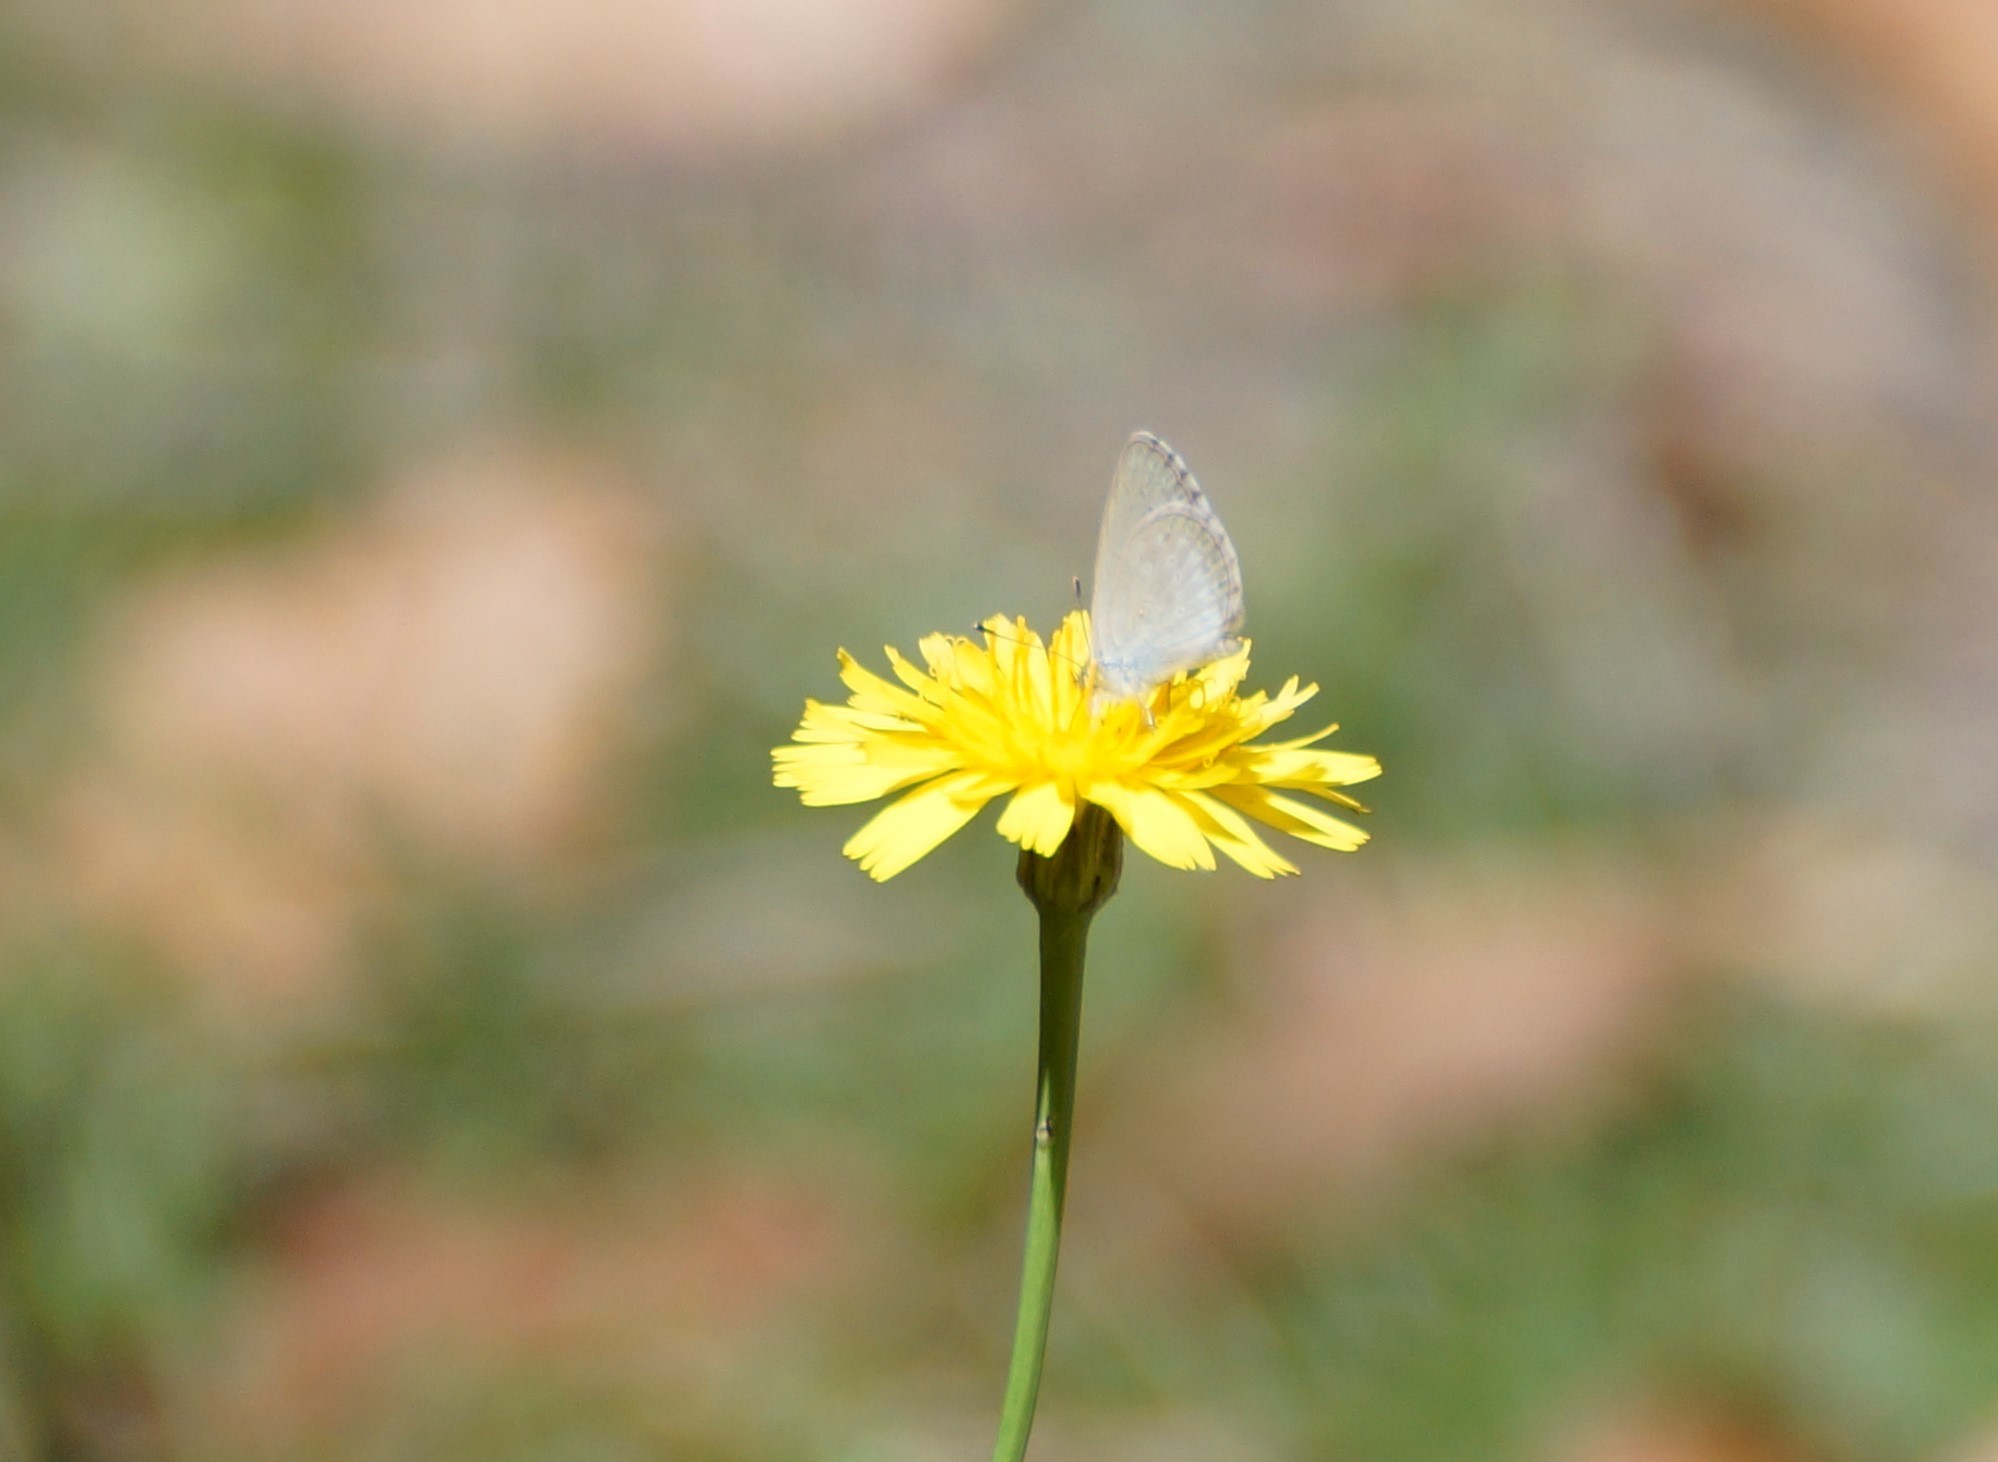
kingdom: Animalia
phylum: Arthropoda
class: Insecta
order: Lepidoptera
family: Lycaenidae
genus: Zizina
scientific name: Zizina labradus
